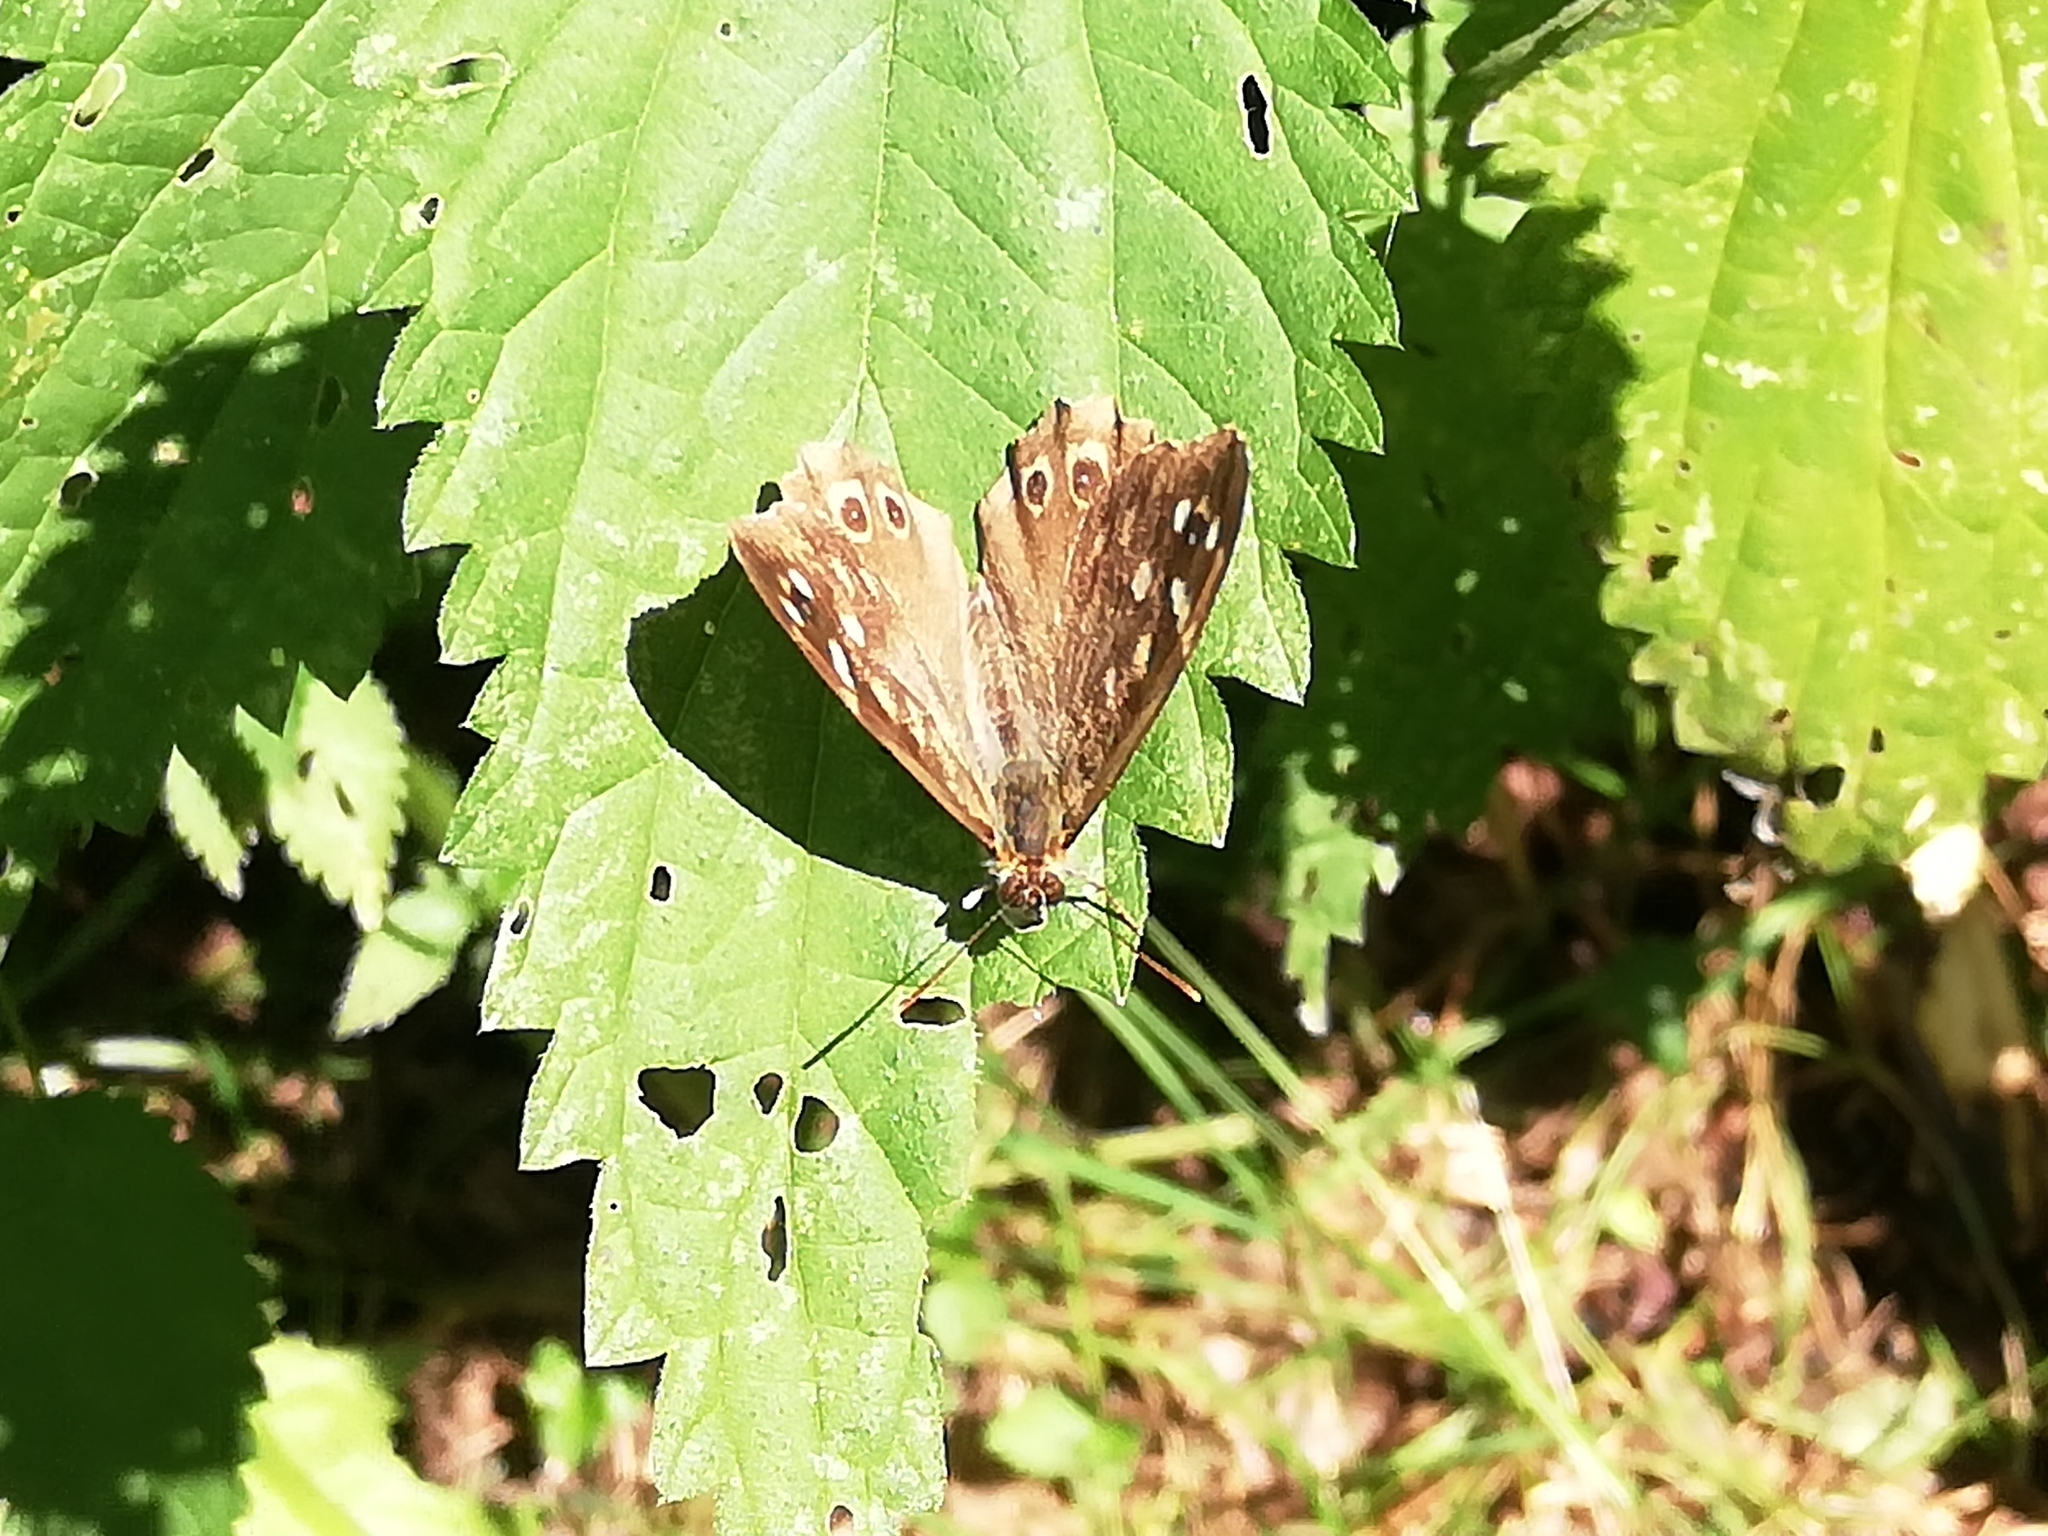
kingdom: Animalia
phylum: Arthropoda
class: Insecta
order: Lepidoptera
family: Nymphalidae
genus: Pararge
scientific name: Pararge aegeria
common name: Speckled wood
